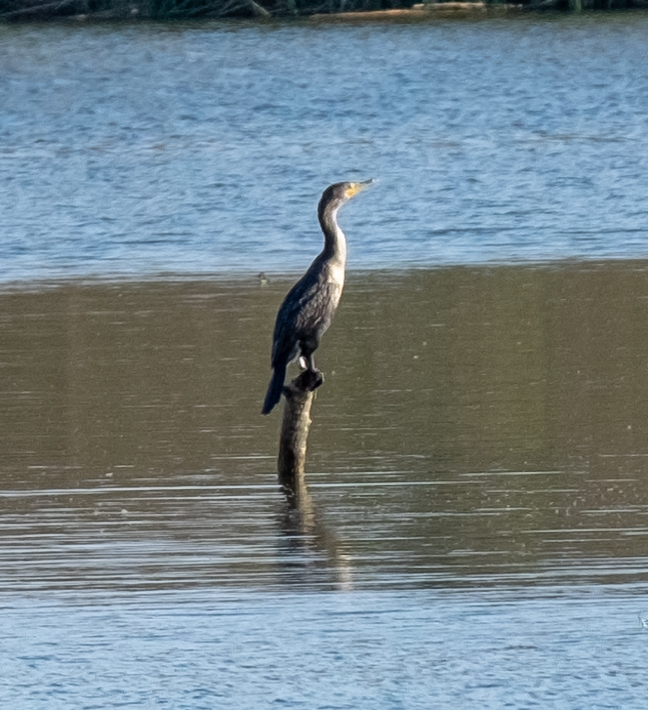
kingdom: Animalia
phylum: Chordata
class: Aves
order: Suliformes
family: Phalacrocoracidae
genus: Phalacrocorax
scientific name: Phalacrocorax auritus
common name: Double-crested cormorant
